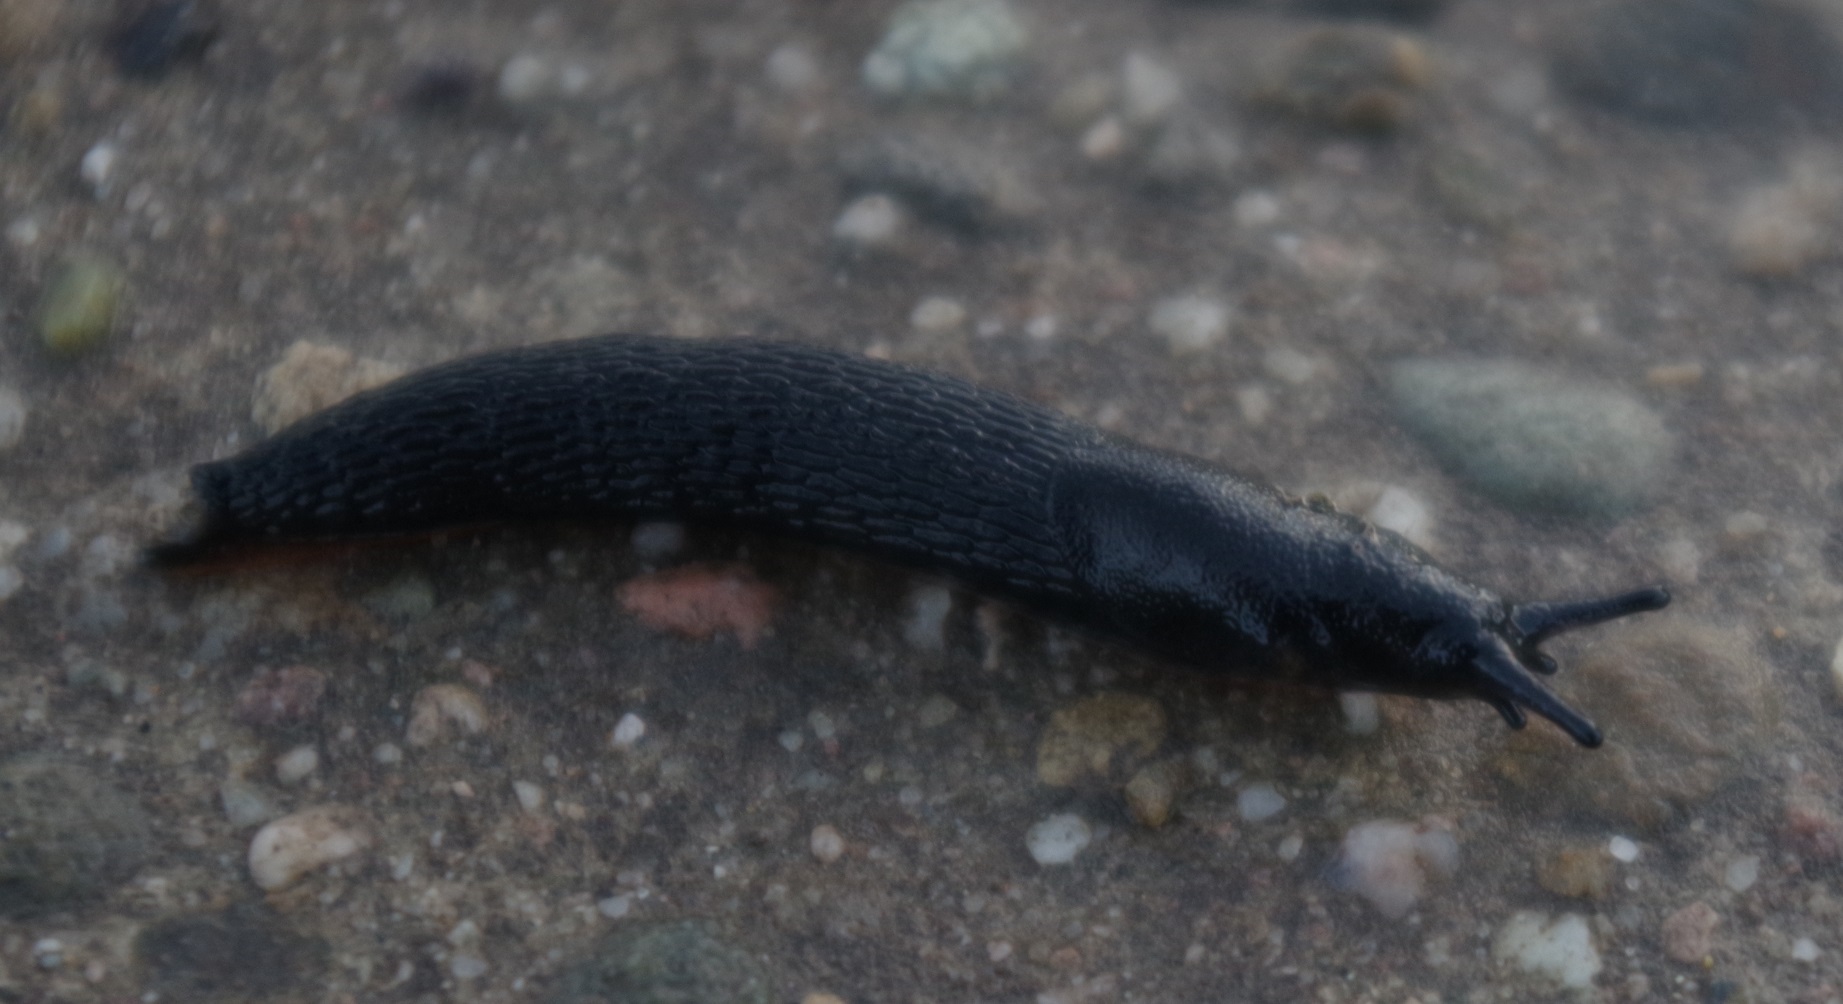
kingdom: Animalia
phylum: Mollusca
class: Gastropoda
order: Stylommatophora
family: Arionidae
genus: Arion
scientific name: Arion ater
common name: Black arion
